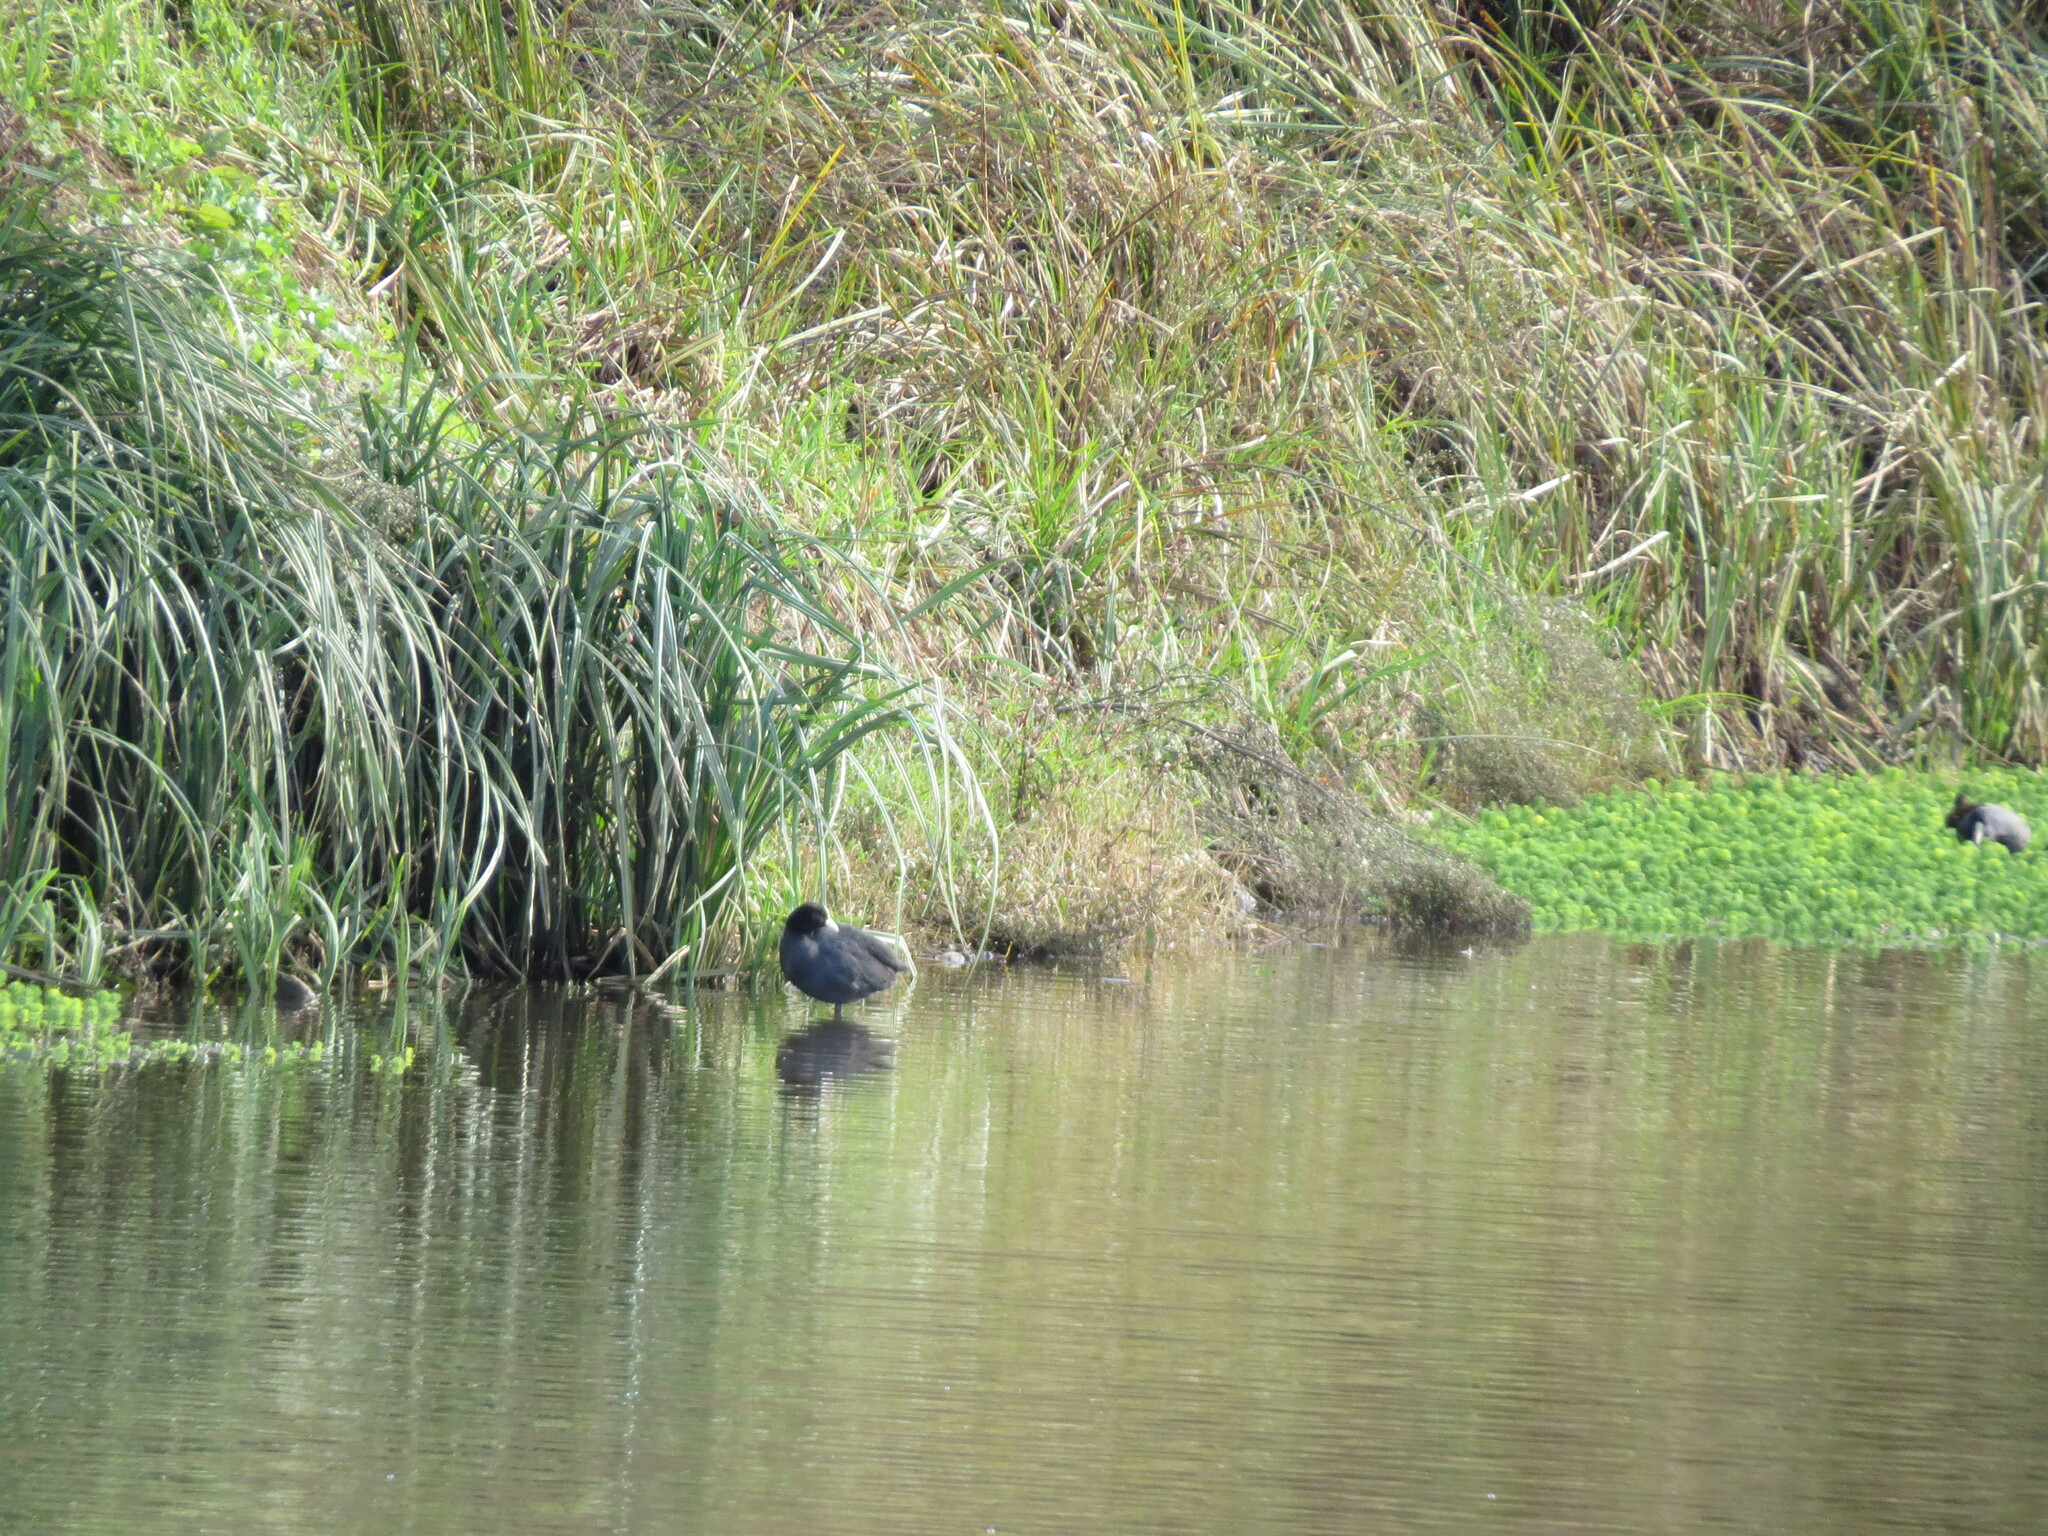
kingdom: Animalia
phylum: Chordata
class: Aves
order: Gruiformes
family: Rallidae
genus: Fulica
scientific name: Fulica atra
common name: Eurasian coot
